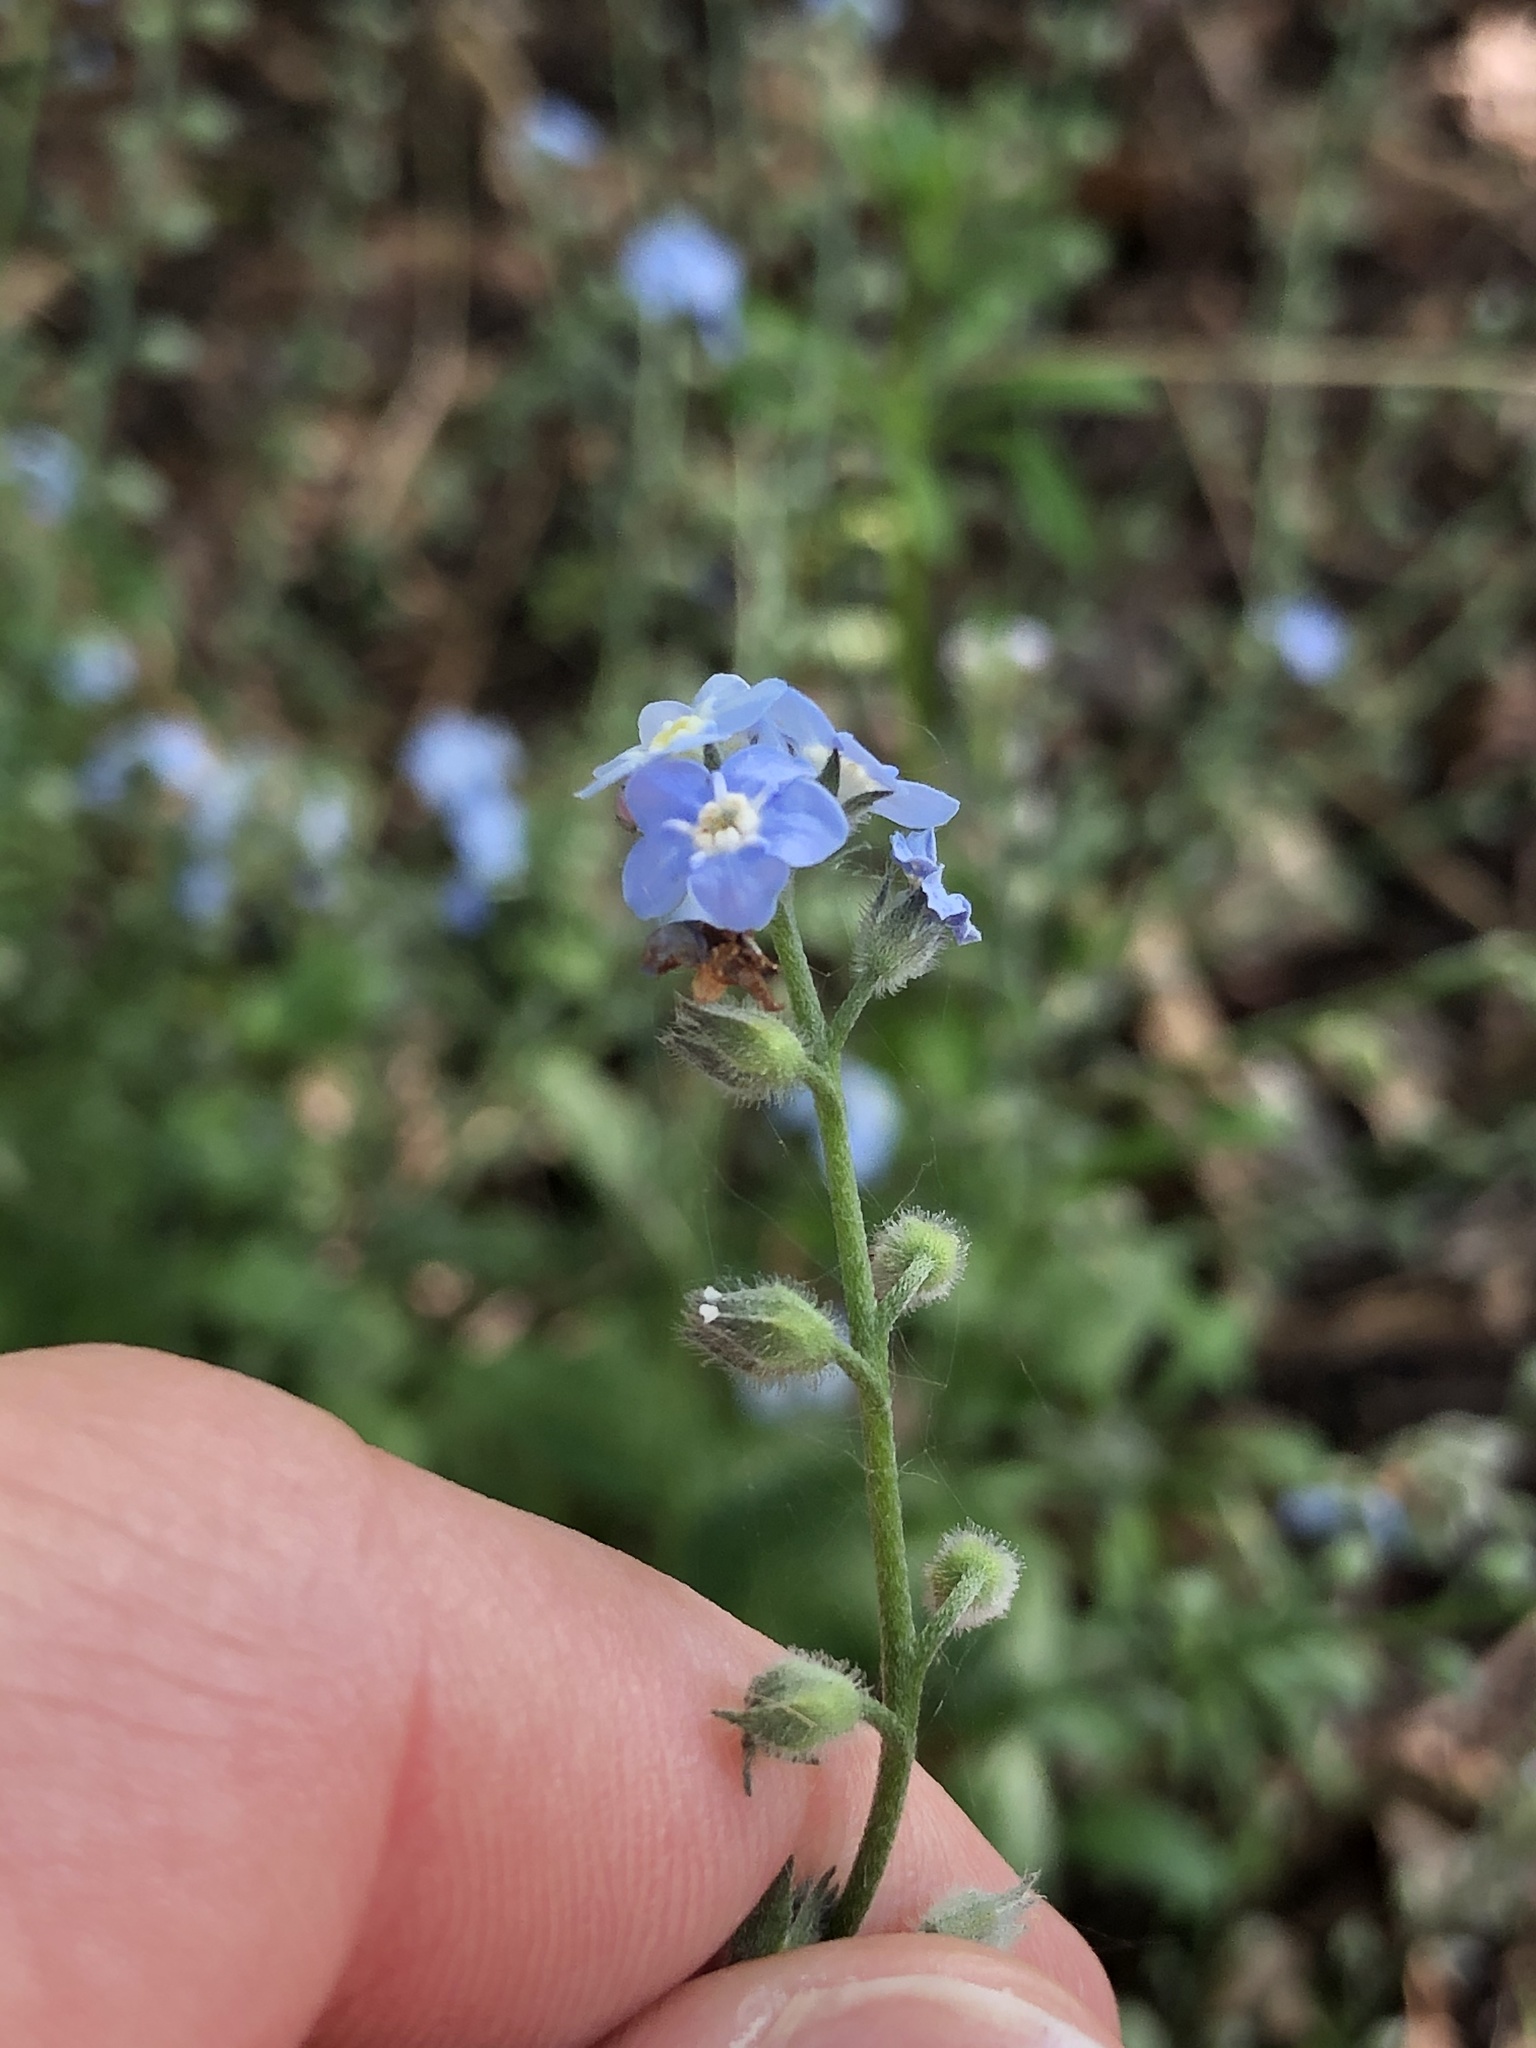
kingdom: Plantae
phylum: Tracheophyta
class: Magnoliopsida
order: Boraginales
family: Boraginaceae
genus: Myosotis
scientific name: Myosotis sylvatica
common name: Wood forget-me-not
